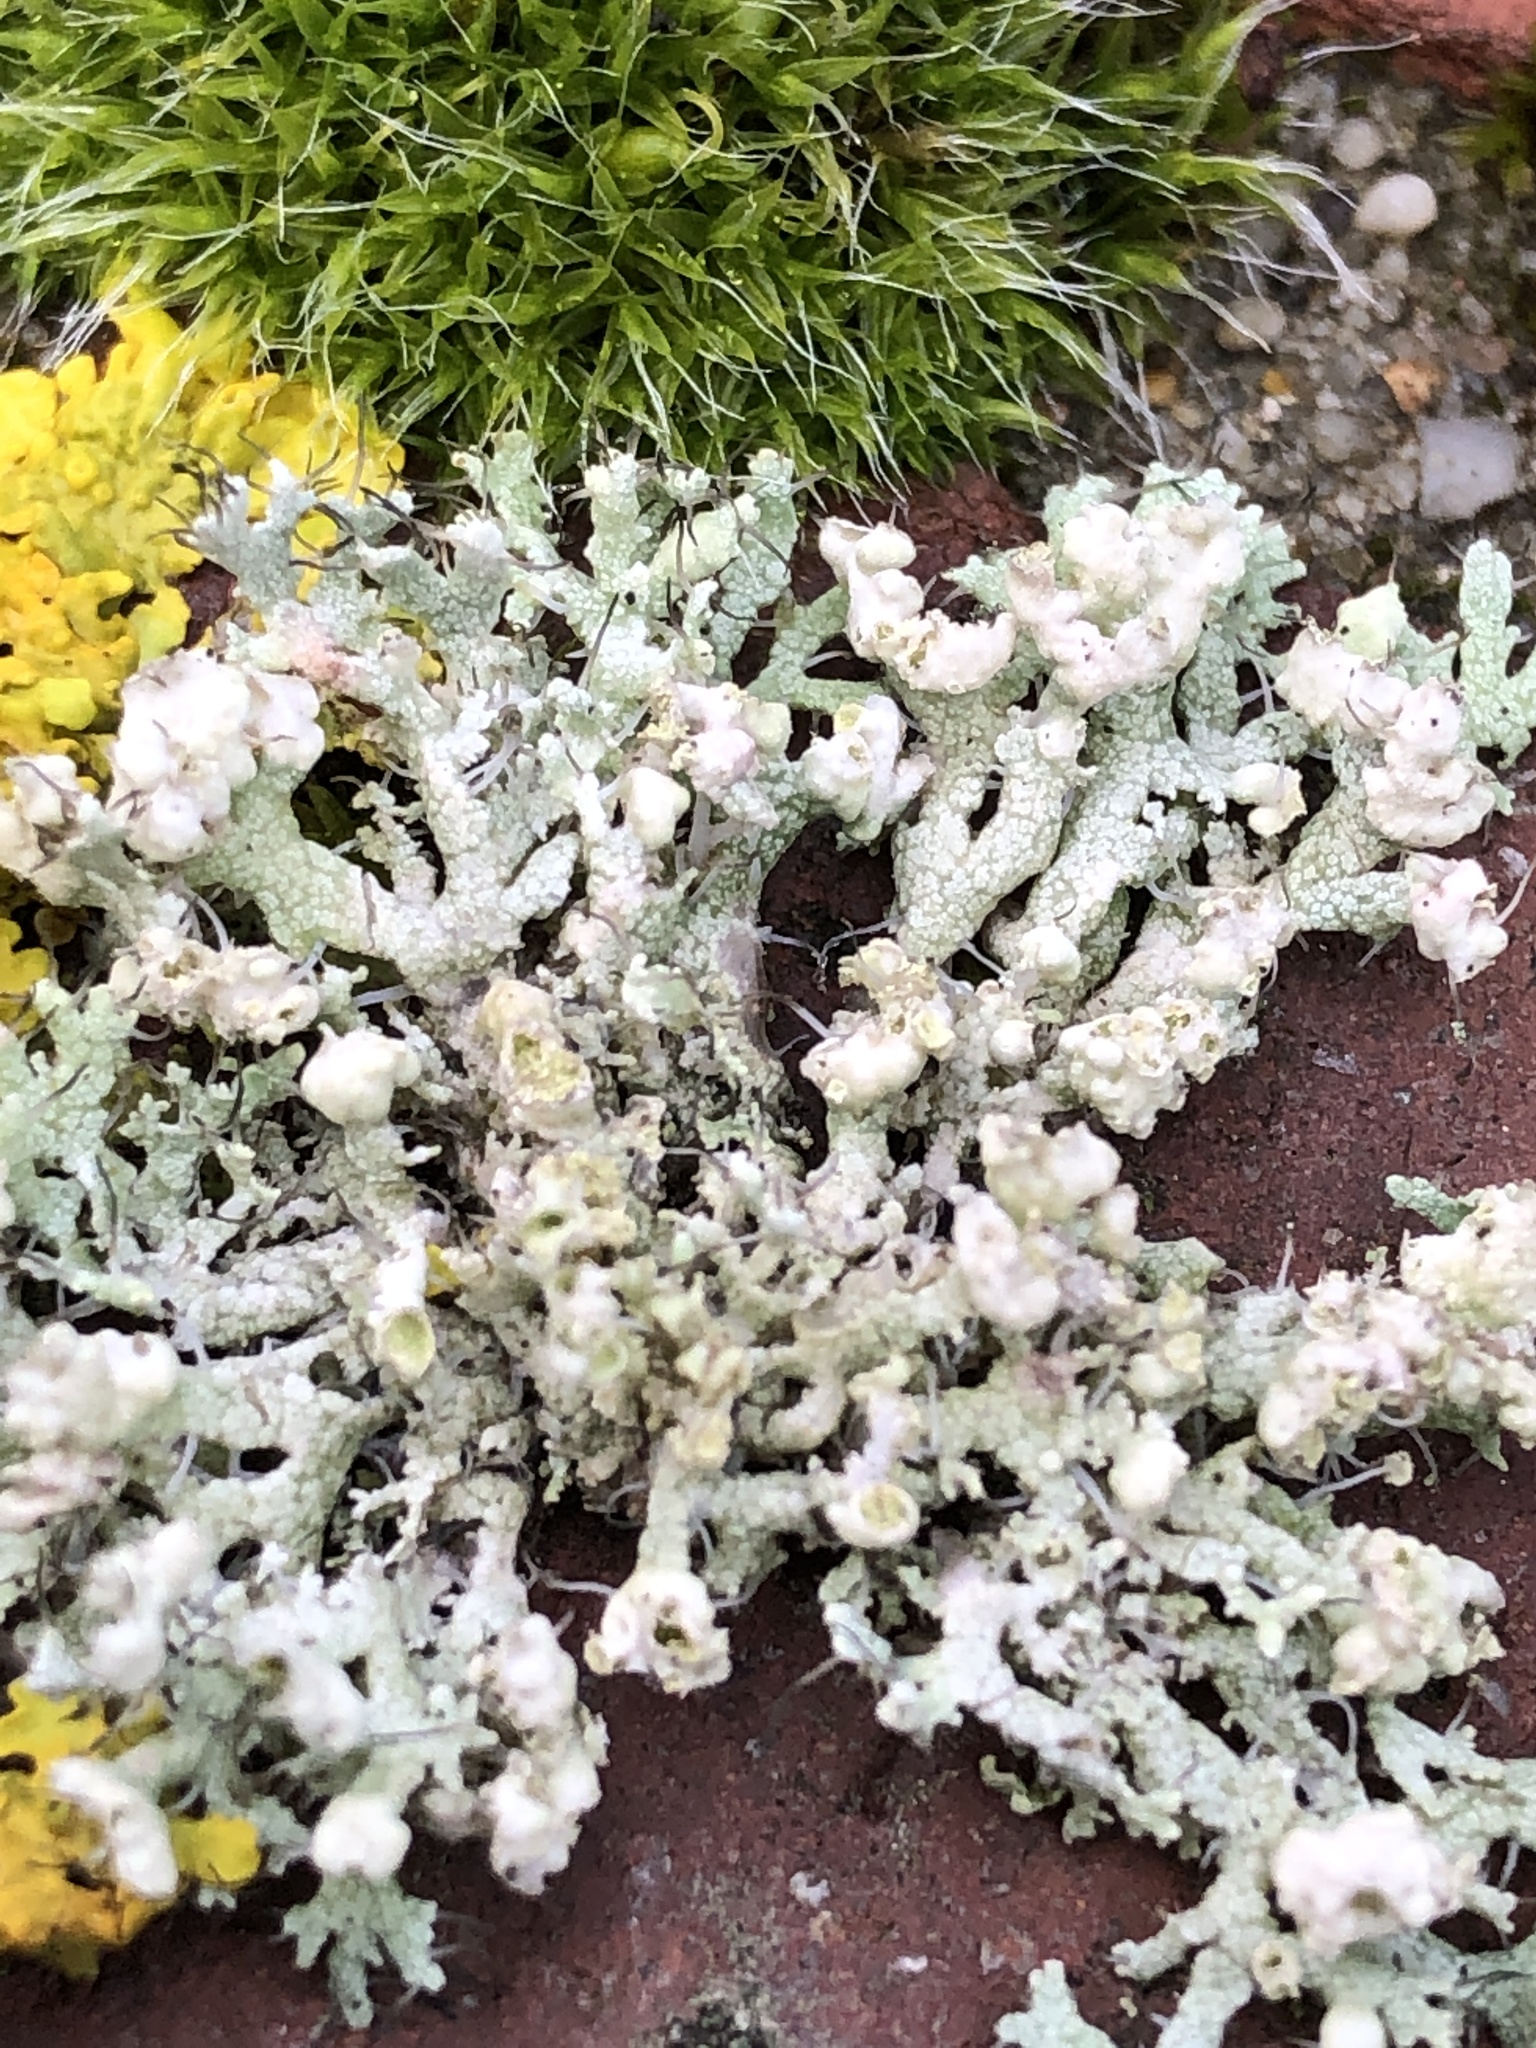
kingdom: Fungi
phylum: Ascomycota
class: Lecanoromycetes
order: Caliciales
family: Physciaceae
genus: Physcia
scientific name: Physcia adscendens
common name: Hooded rosette lichen
